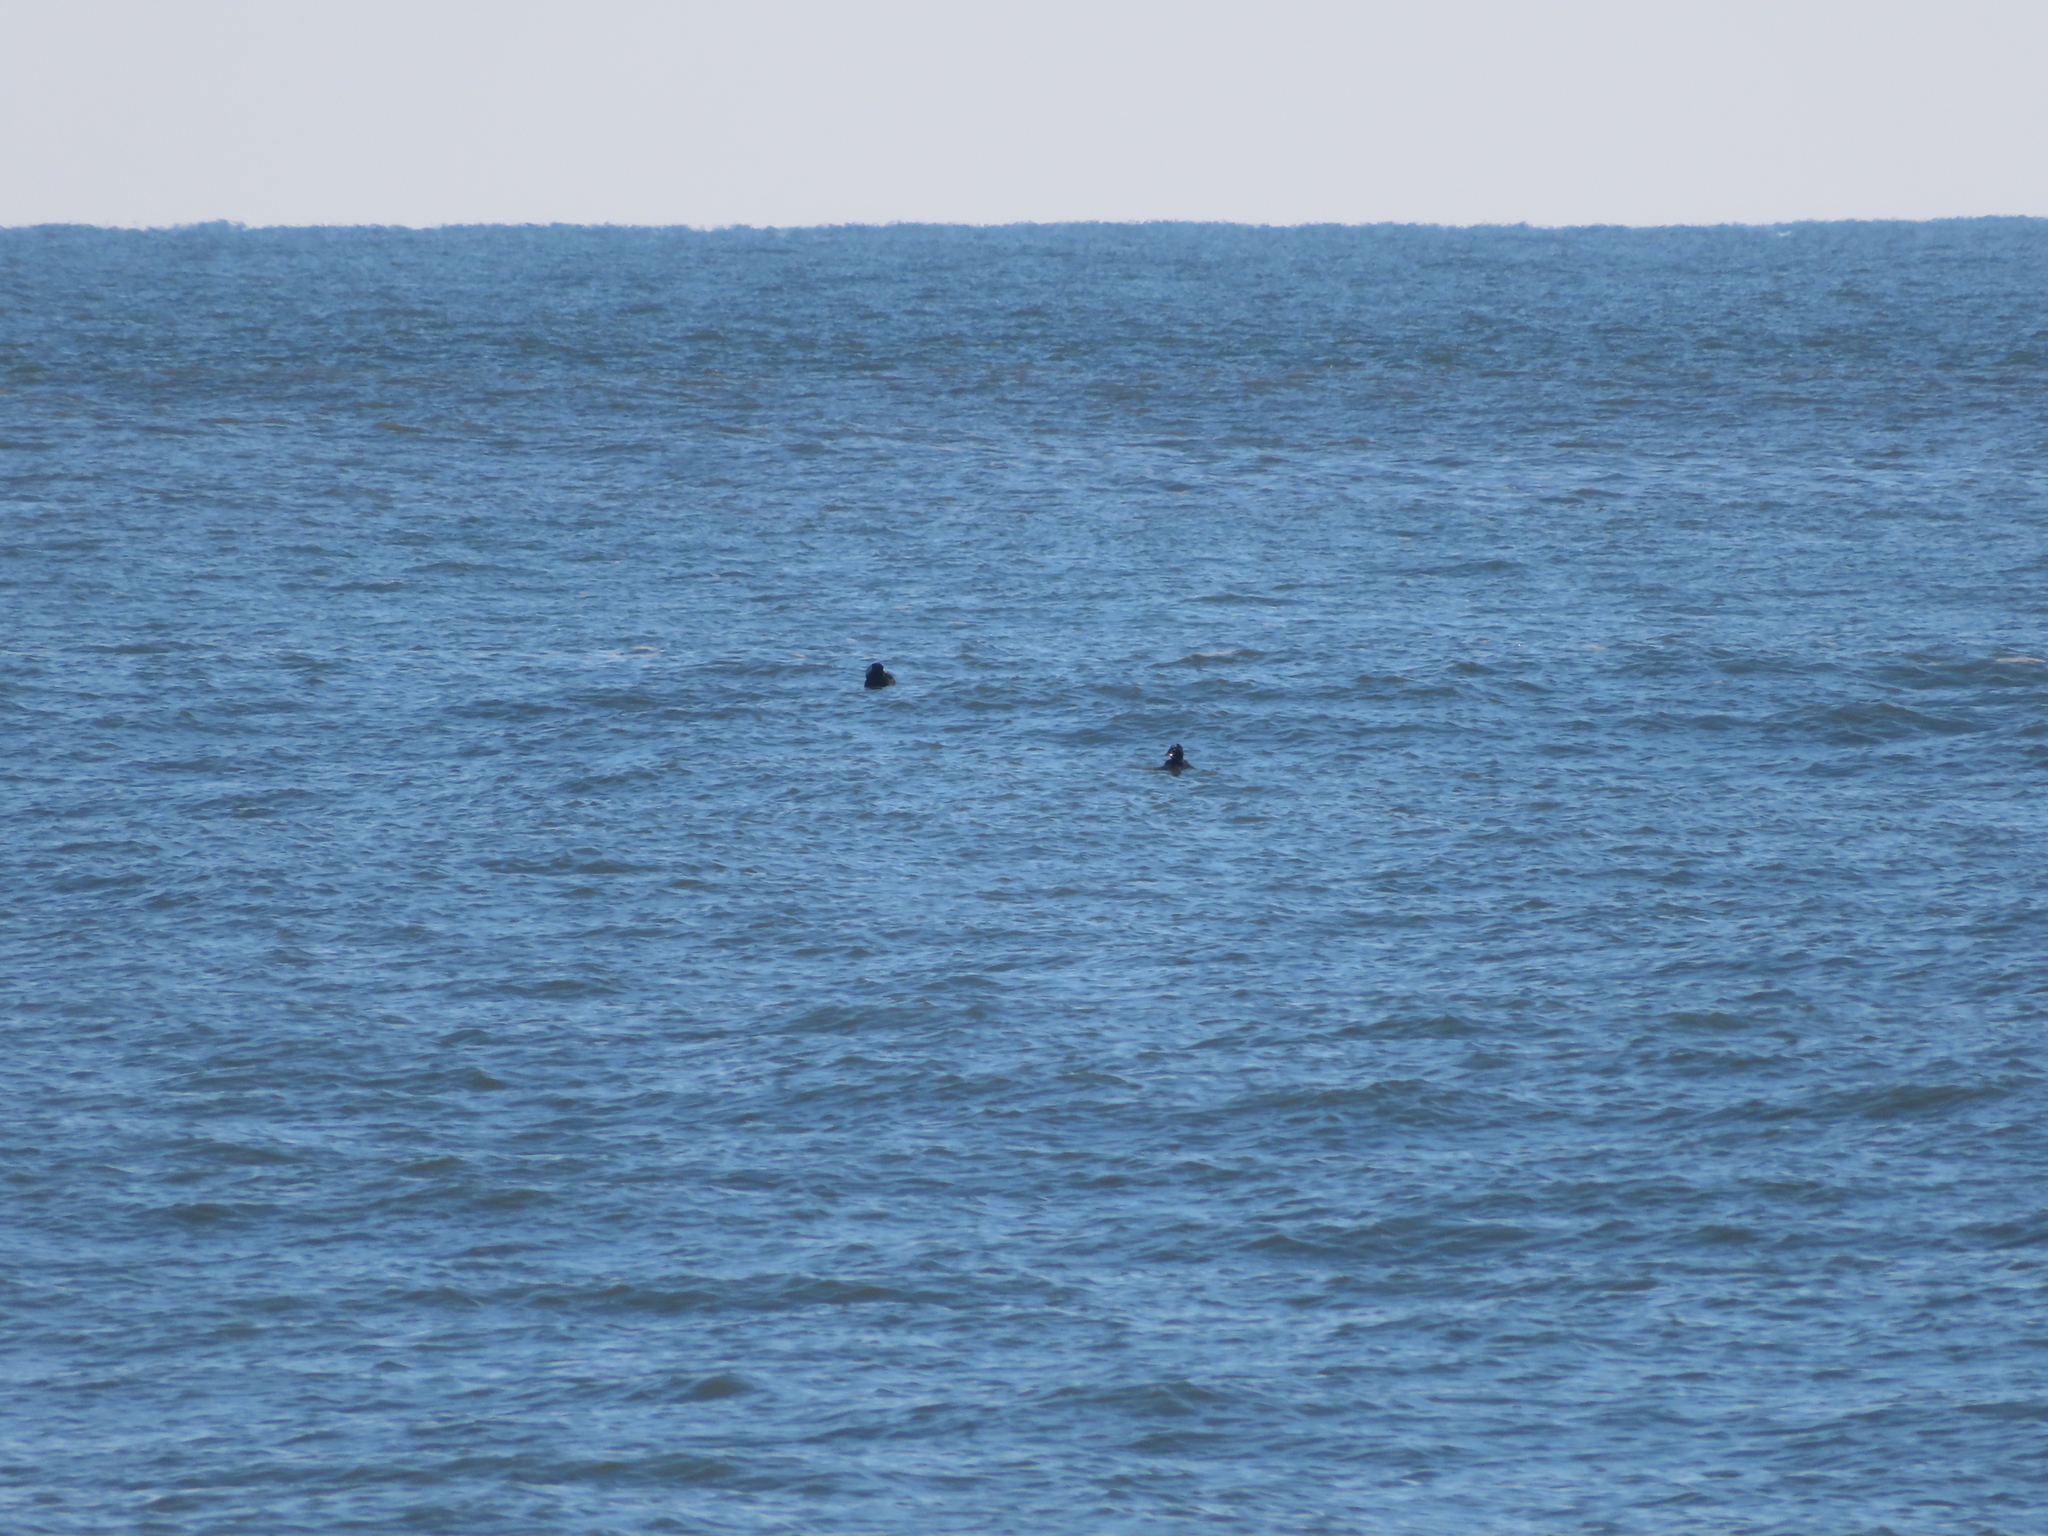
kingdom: Animalia
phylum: Chordata
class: Aves
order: Anseriformes
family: Anatidae
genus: Melanitta
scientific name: Melanitta perspicillata
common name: Surf scoter
